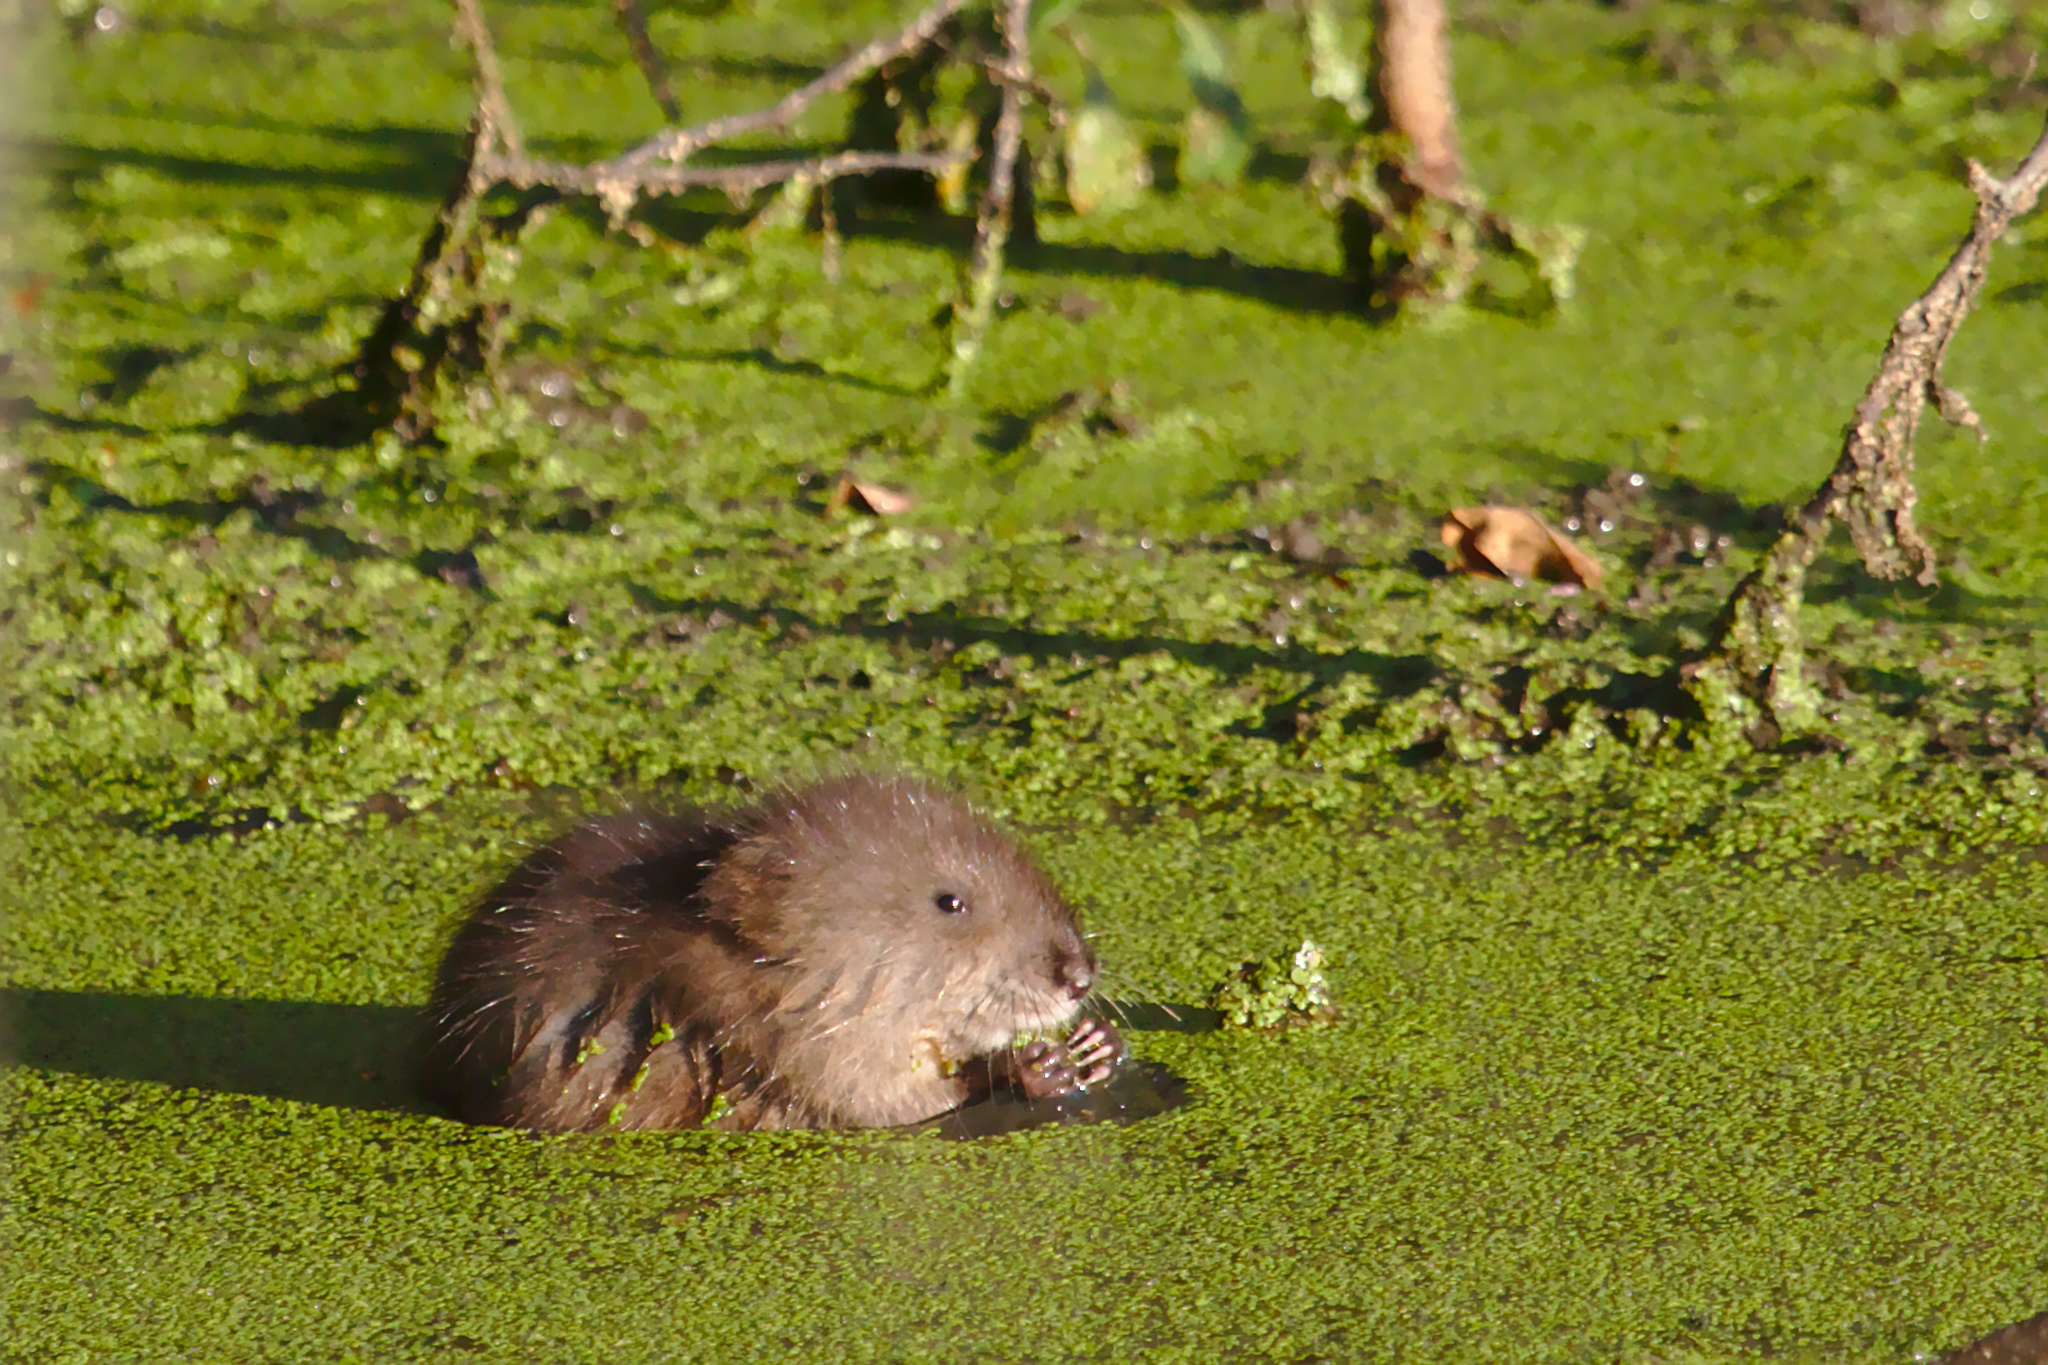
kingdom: Animalia
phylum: Chordata
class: Mammalia
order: Rodentia
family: Cricetidae
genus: Ondatra
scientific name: Ondatra zibethicus
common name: Muskrat
